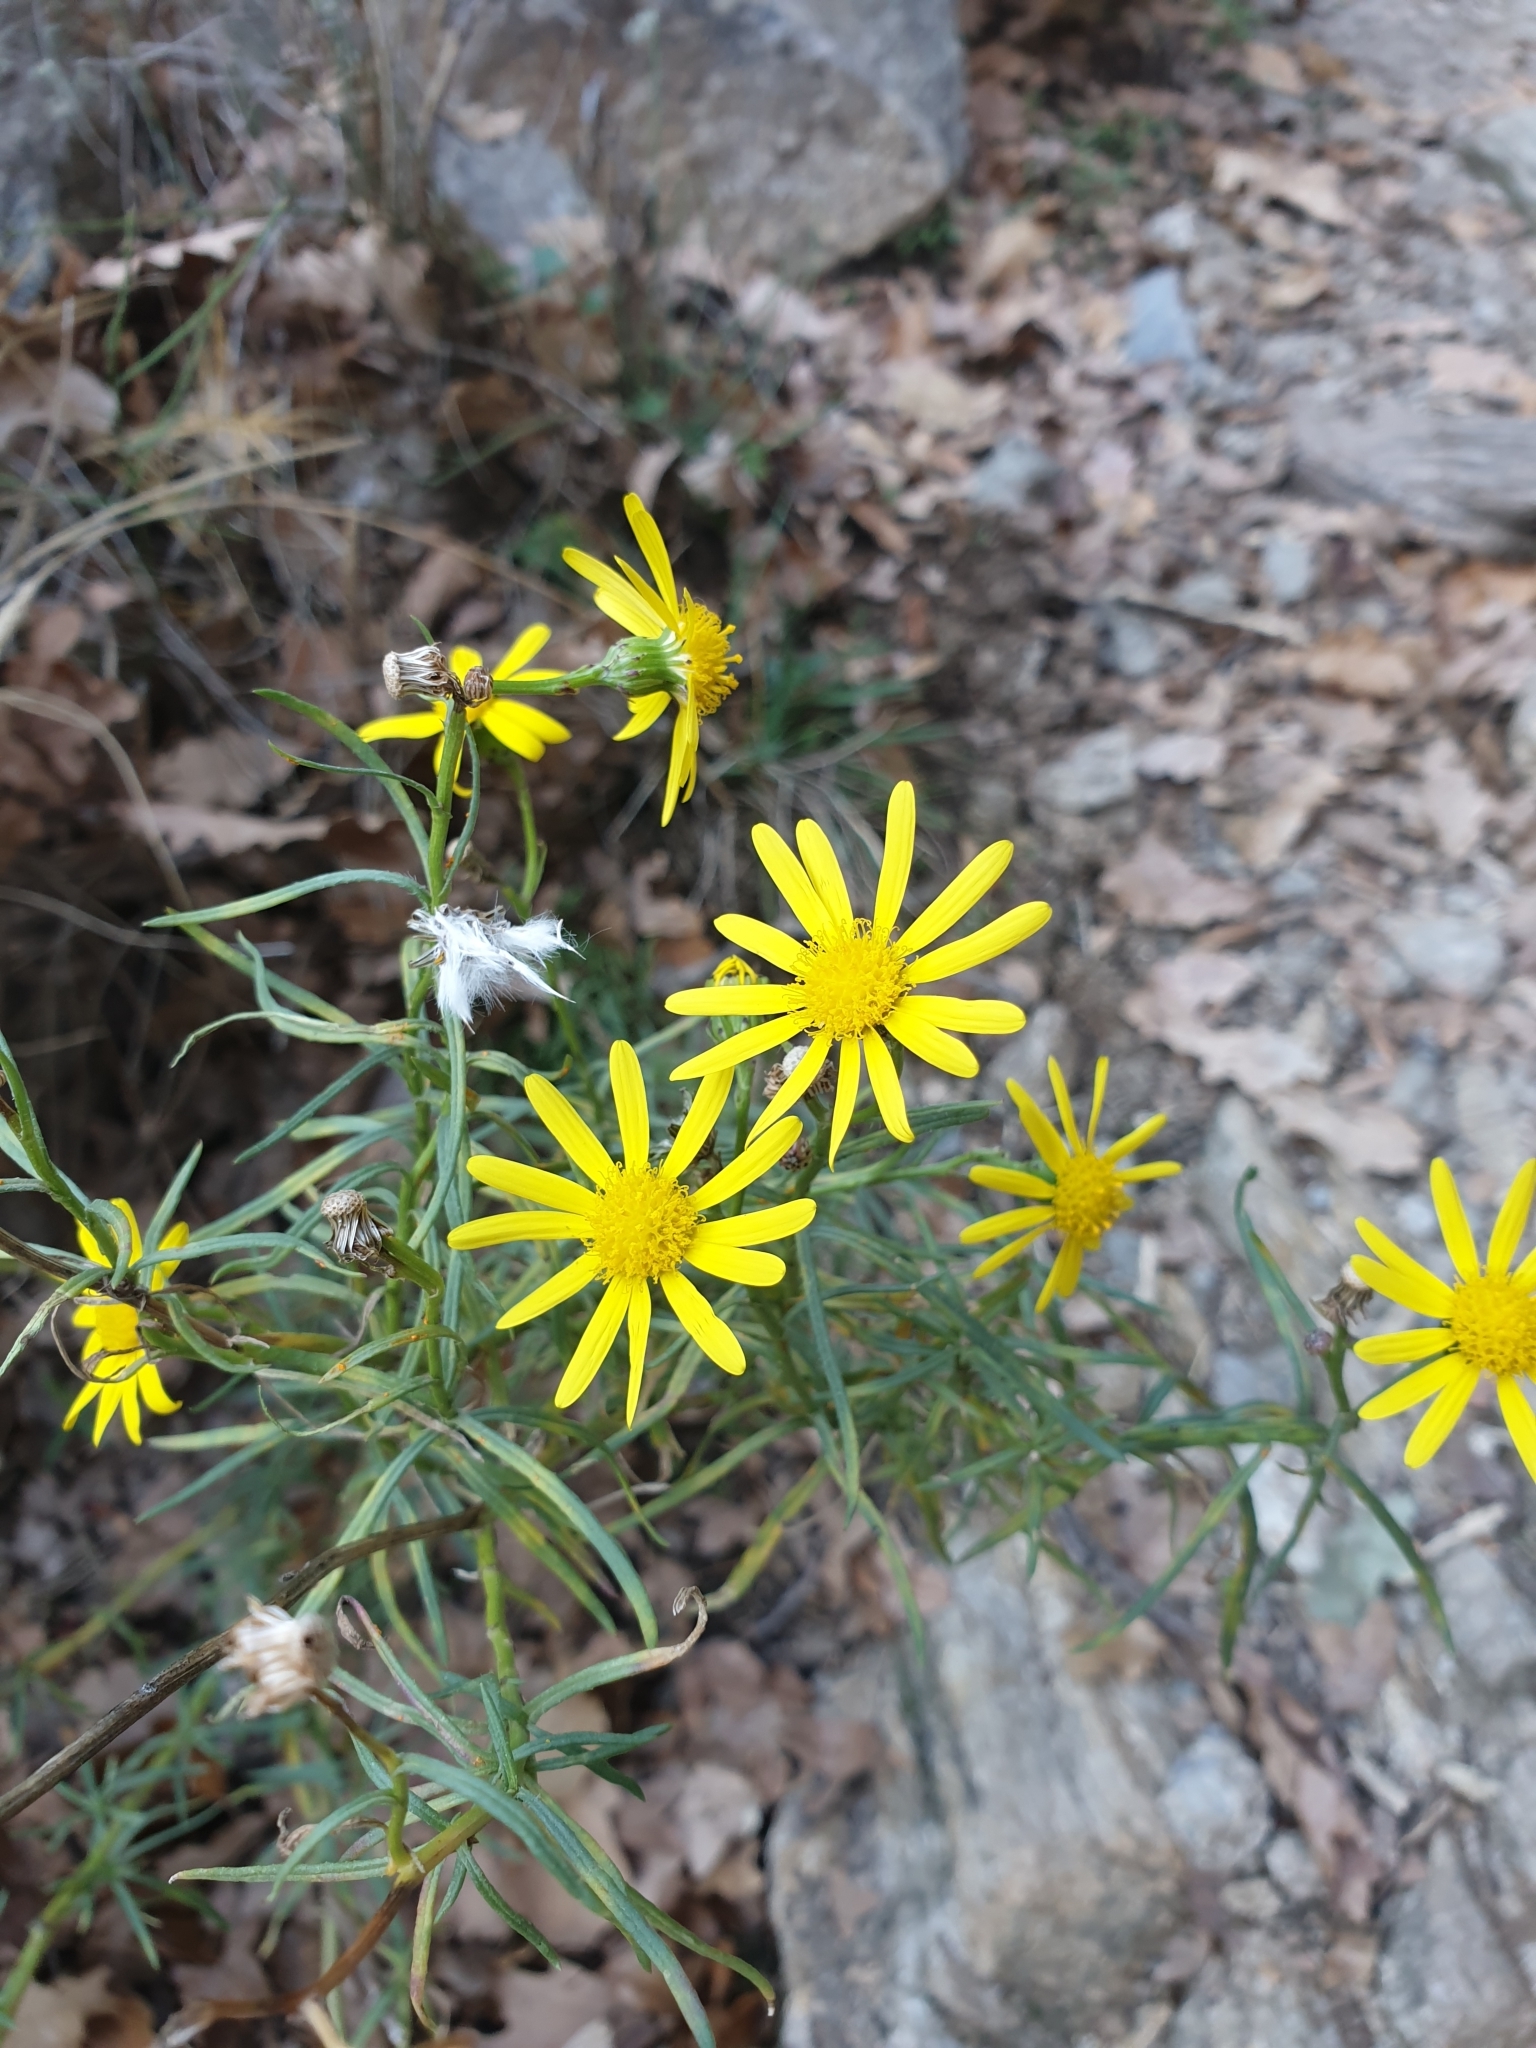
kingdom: Plantae
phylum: Tracheophyta
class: Magnoliopsida
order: Asterales
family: Asteraceae
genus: Senecio
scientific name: Senecio inaequidens
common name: Narrow-leaved ragwort
